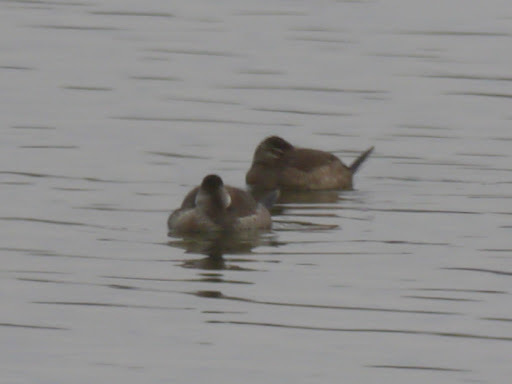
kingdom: Animalia
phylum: Chordata
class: Aves
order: Anseriformes
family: Anatidae
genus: Oxyura
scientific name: Oxyura jamaicensis
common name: Ruddy duck
